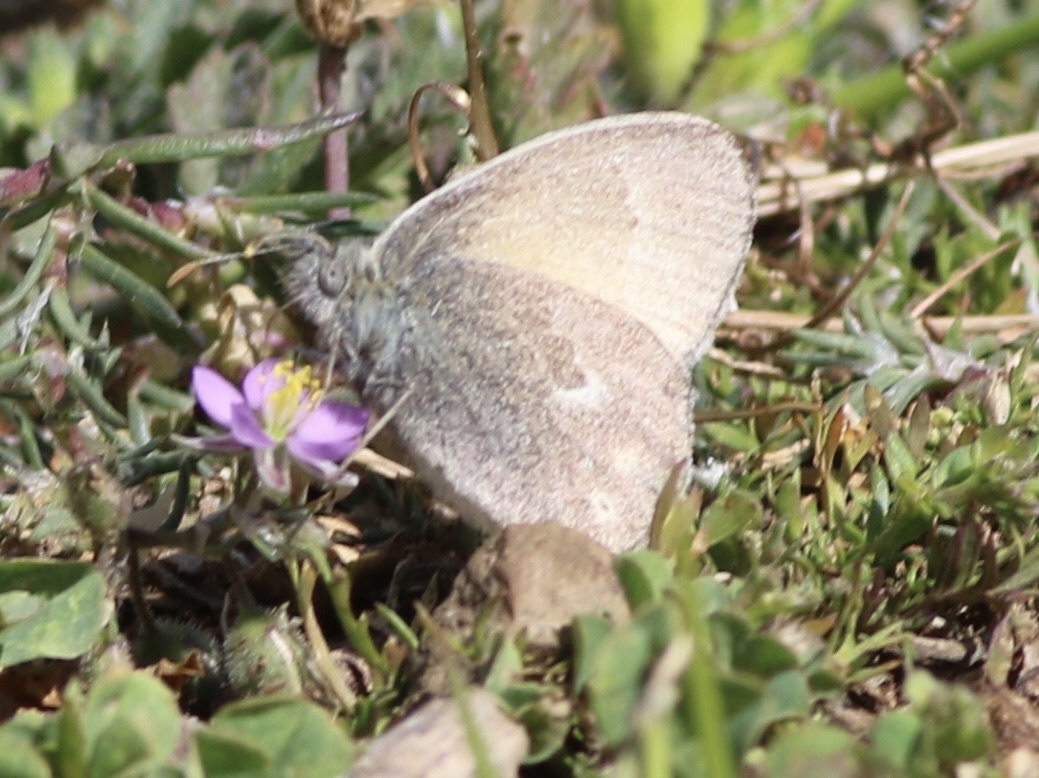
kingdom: Animalia
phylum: Arthropoda
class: Insecta
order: Lepidoptera
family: Nymphalidae
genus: Coenonympha
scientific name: Coenonympha california
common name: Common ringlet
